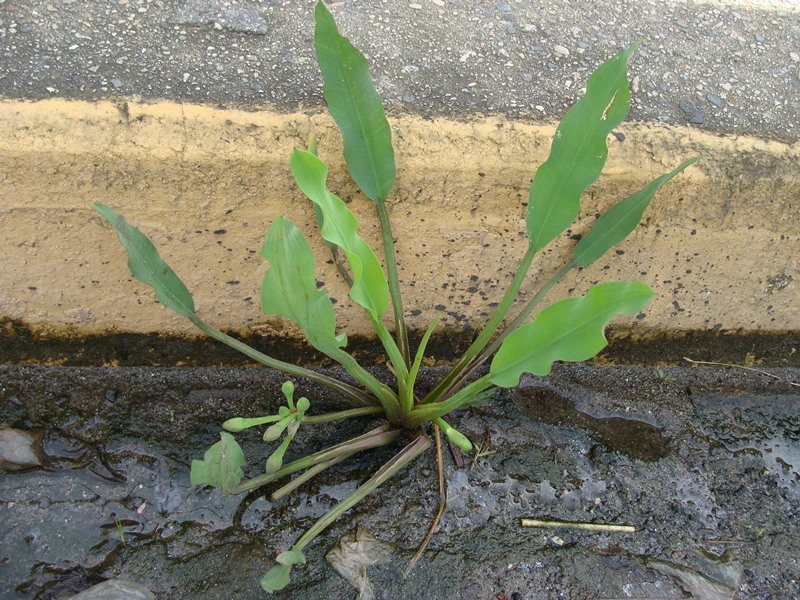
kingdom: Plantae
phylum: Tracheophyta
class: Liliopsida
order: Alismatales
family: Alismataceae
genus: Limnocharis
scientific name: Limnocharis laforestii
